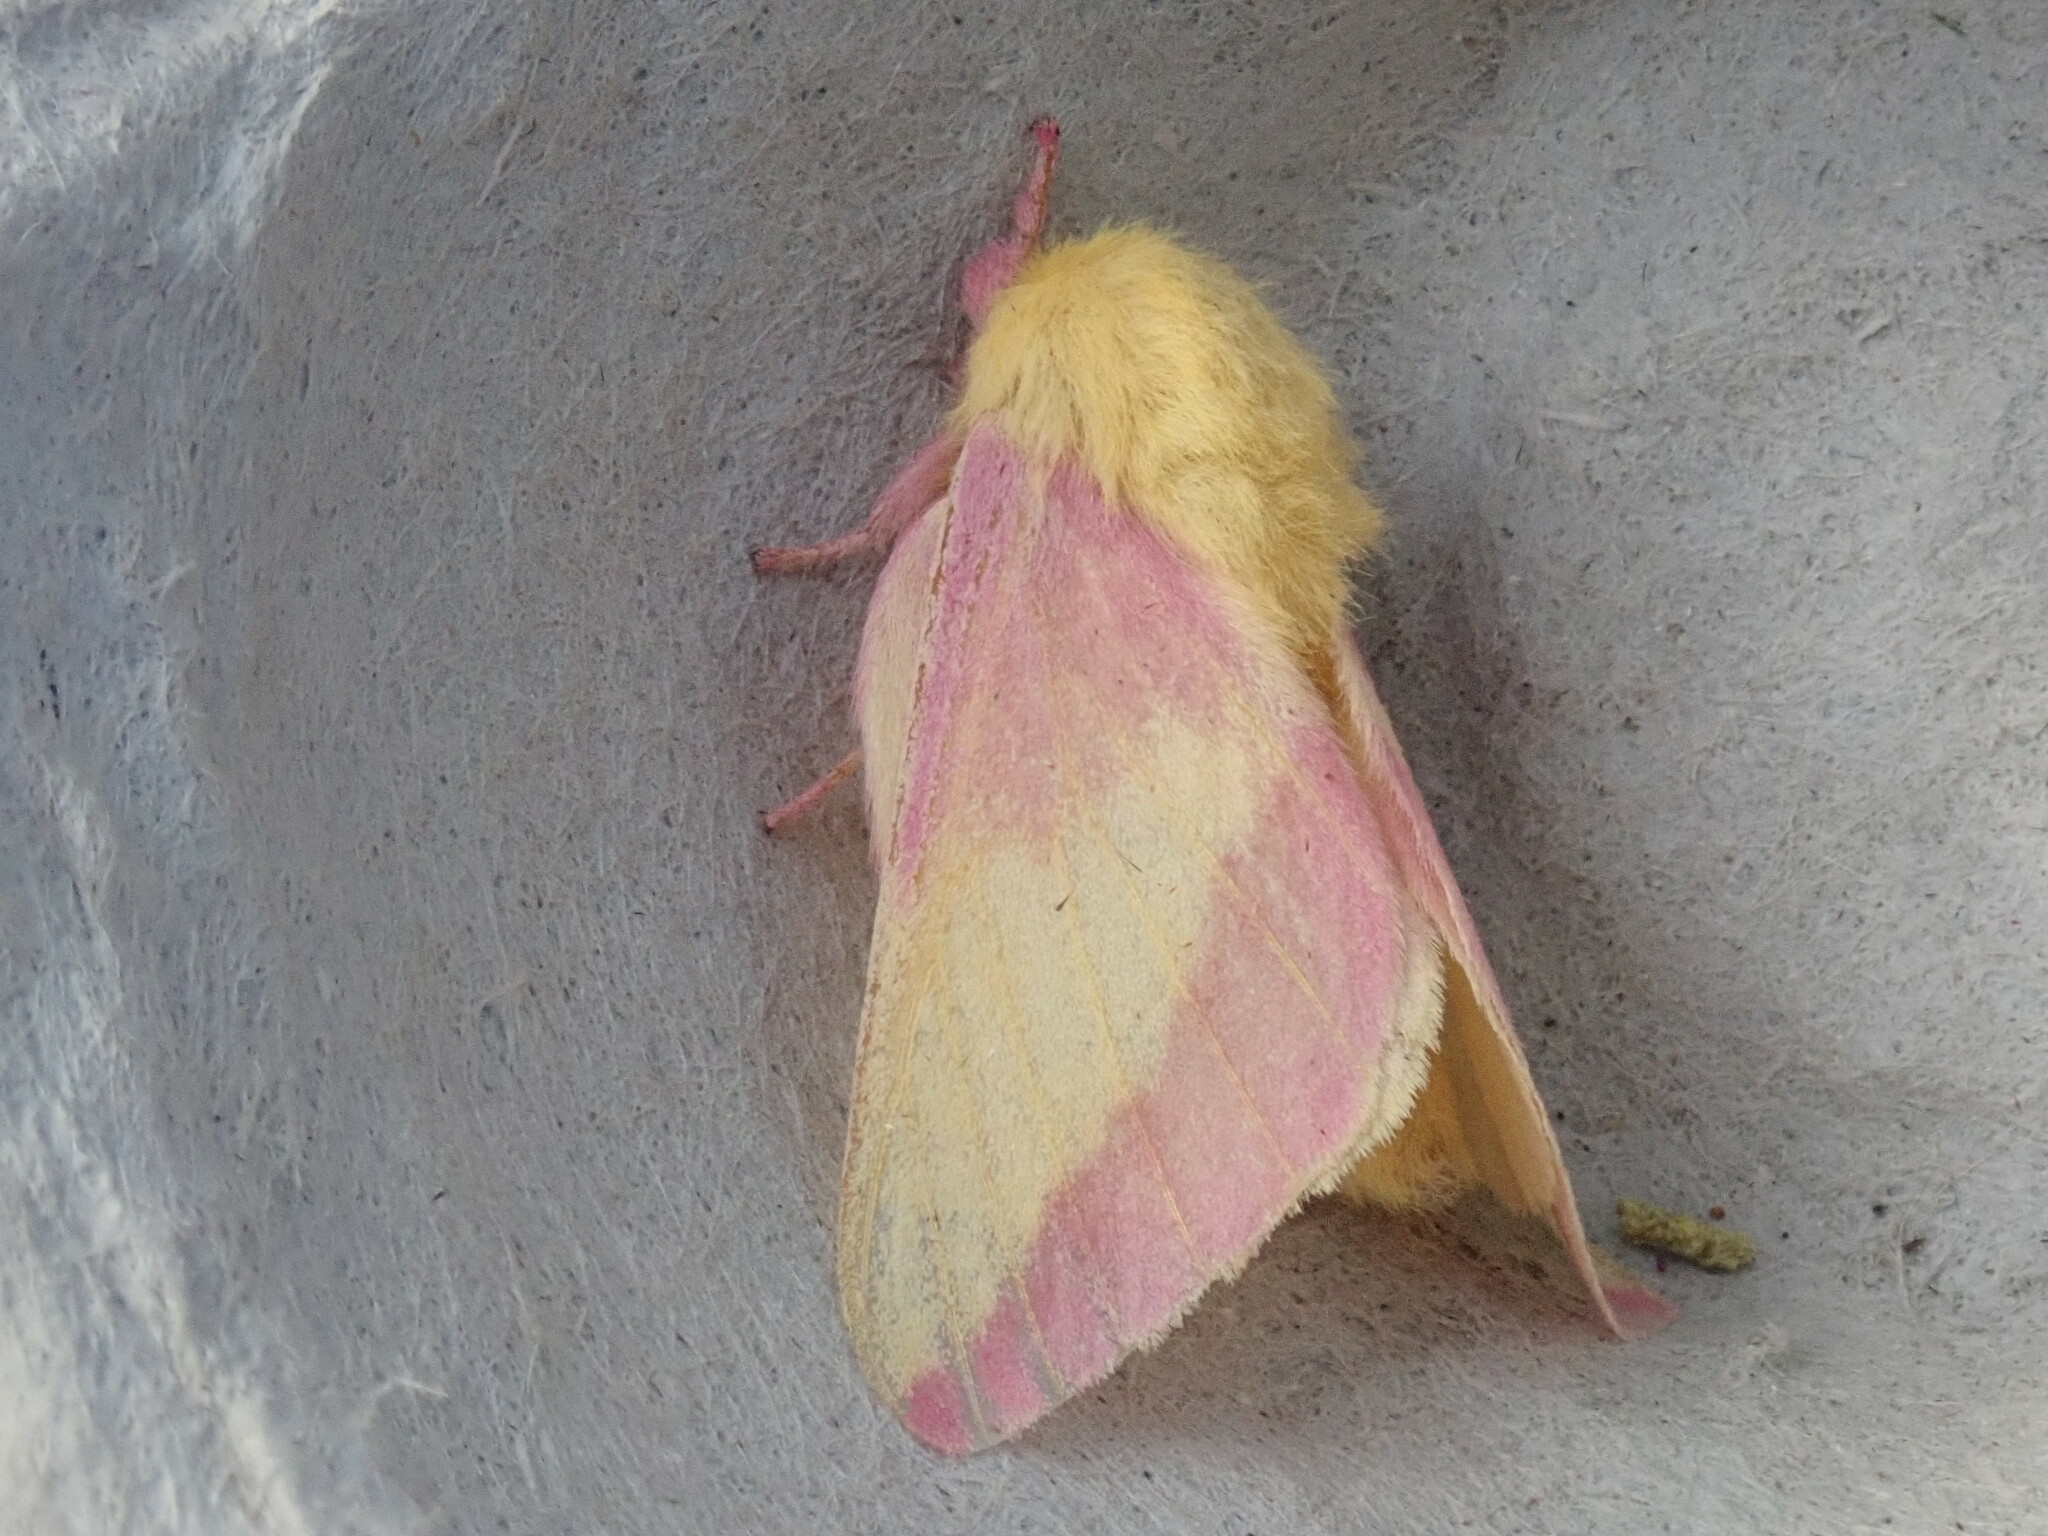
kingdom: Animalia
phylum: Arthropoda
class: Insecta
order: Lepidoptera
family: Saturniidae
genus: Dryocampa
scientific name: Dryocampa rubicunda
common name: Rosy maple moth
